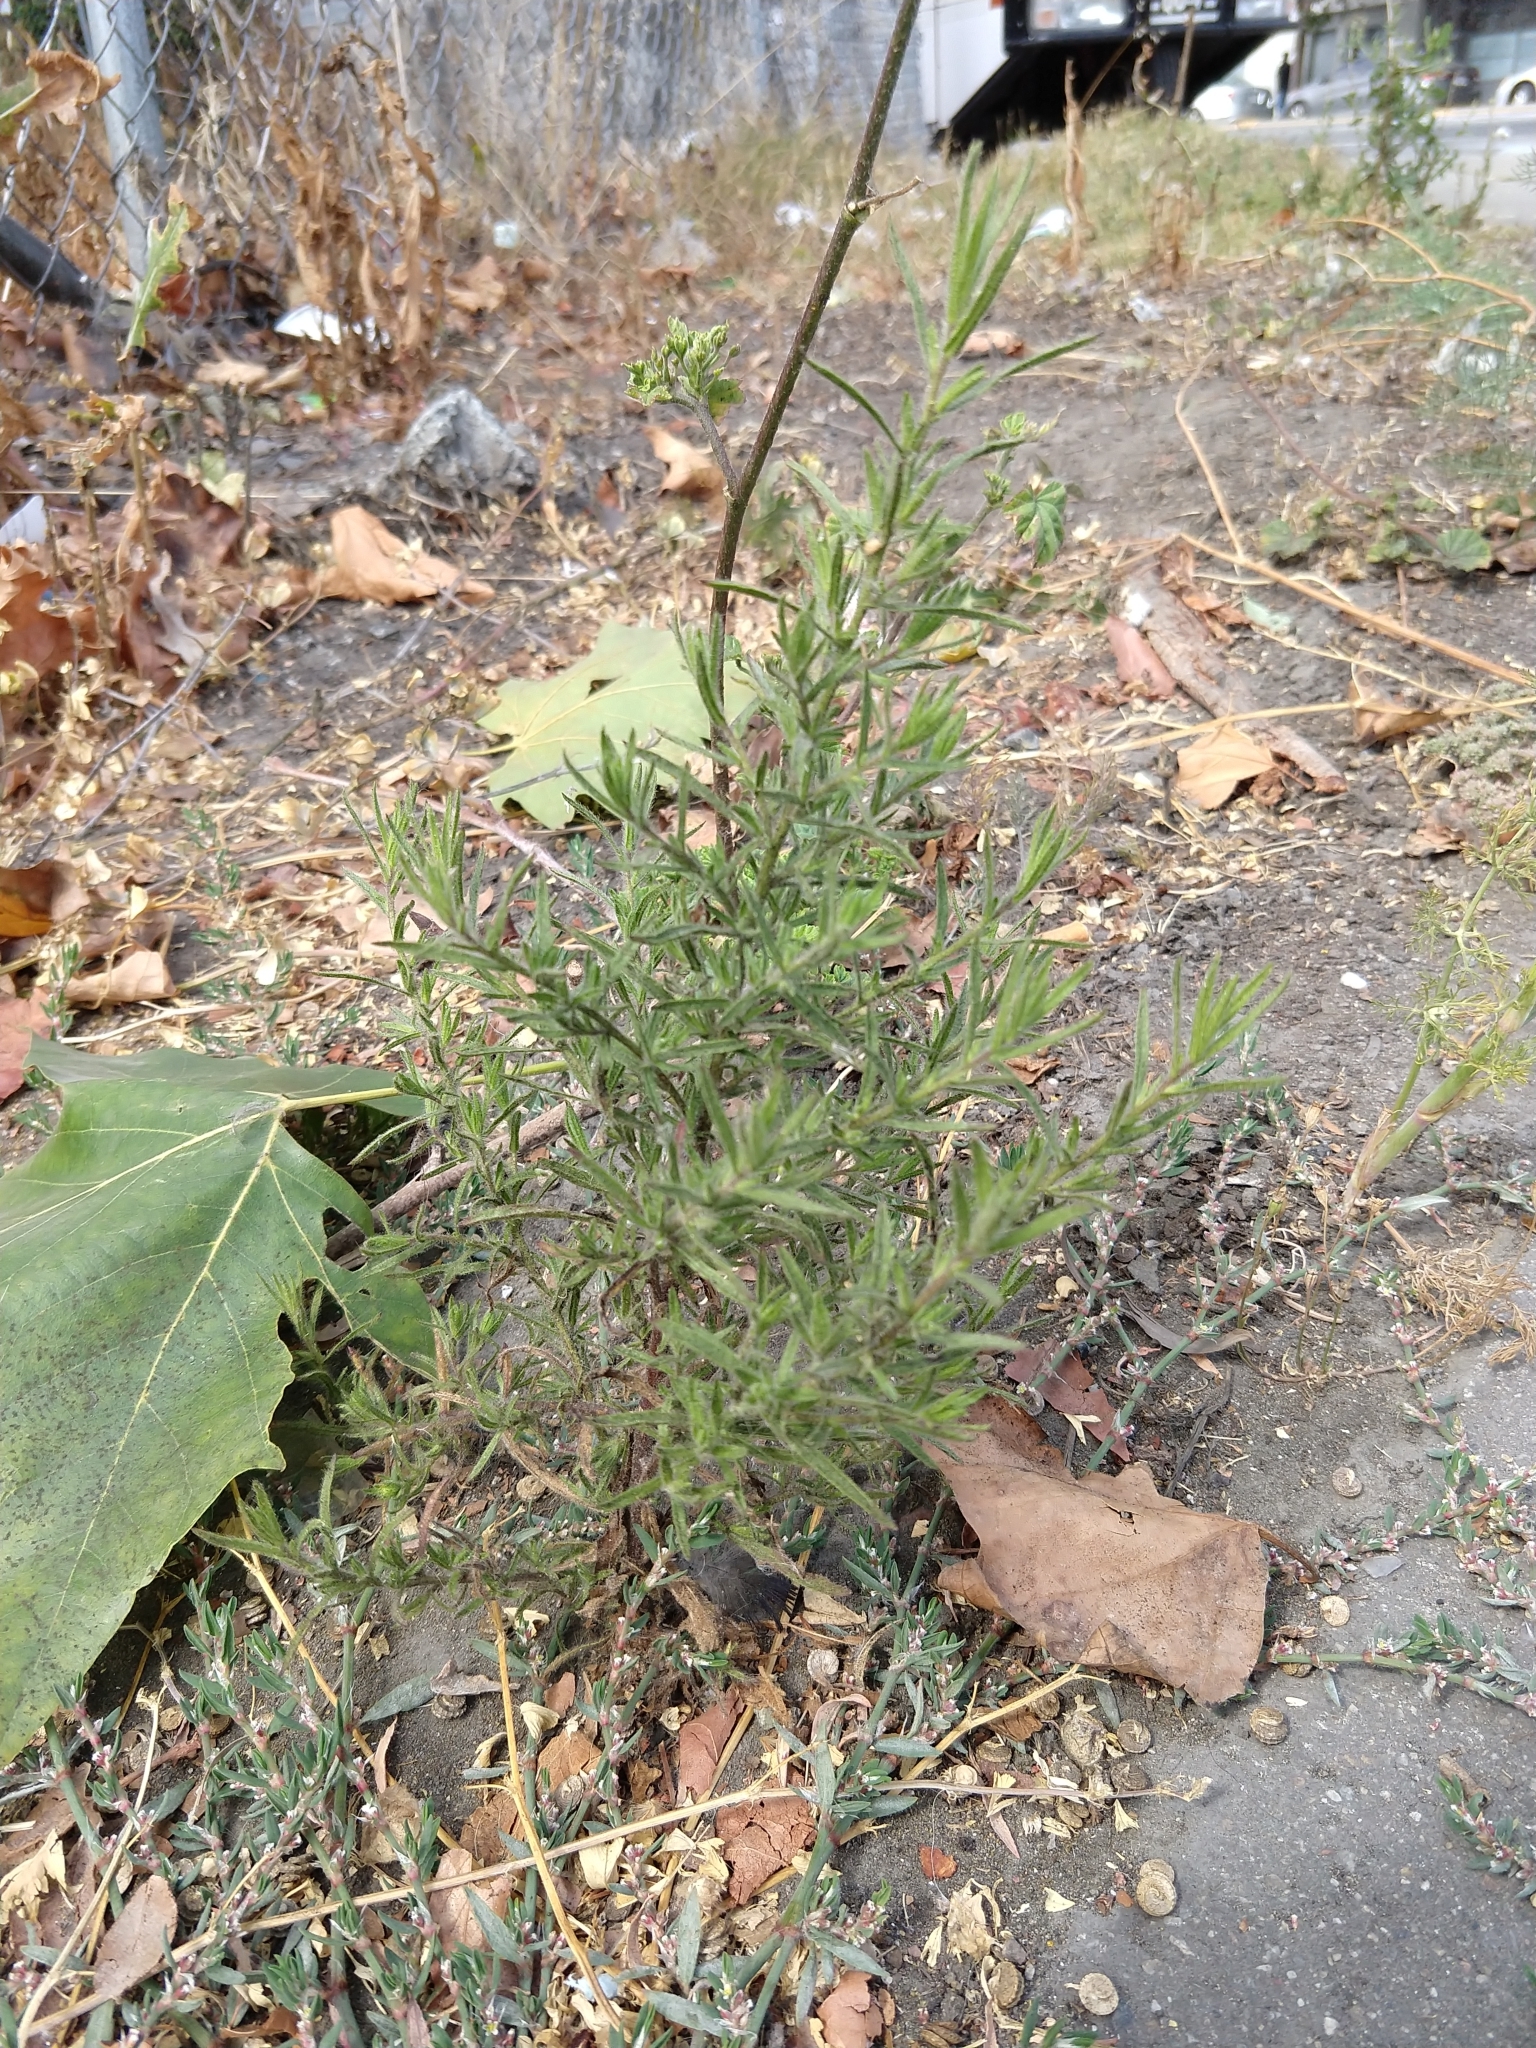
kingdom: Plantae
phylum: Tracheophyta
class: Magnoliopsida
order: Asterales
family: Asteraceae
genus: Dittrichia
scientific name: Dittrichia graveolens
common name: Stinking fleabane
